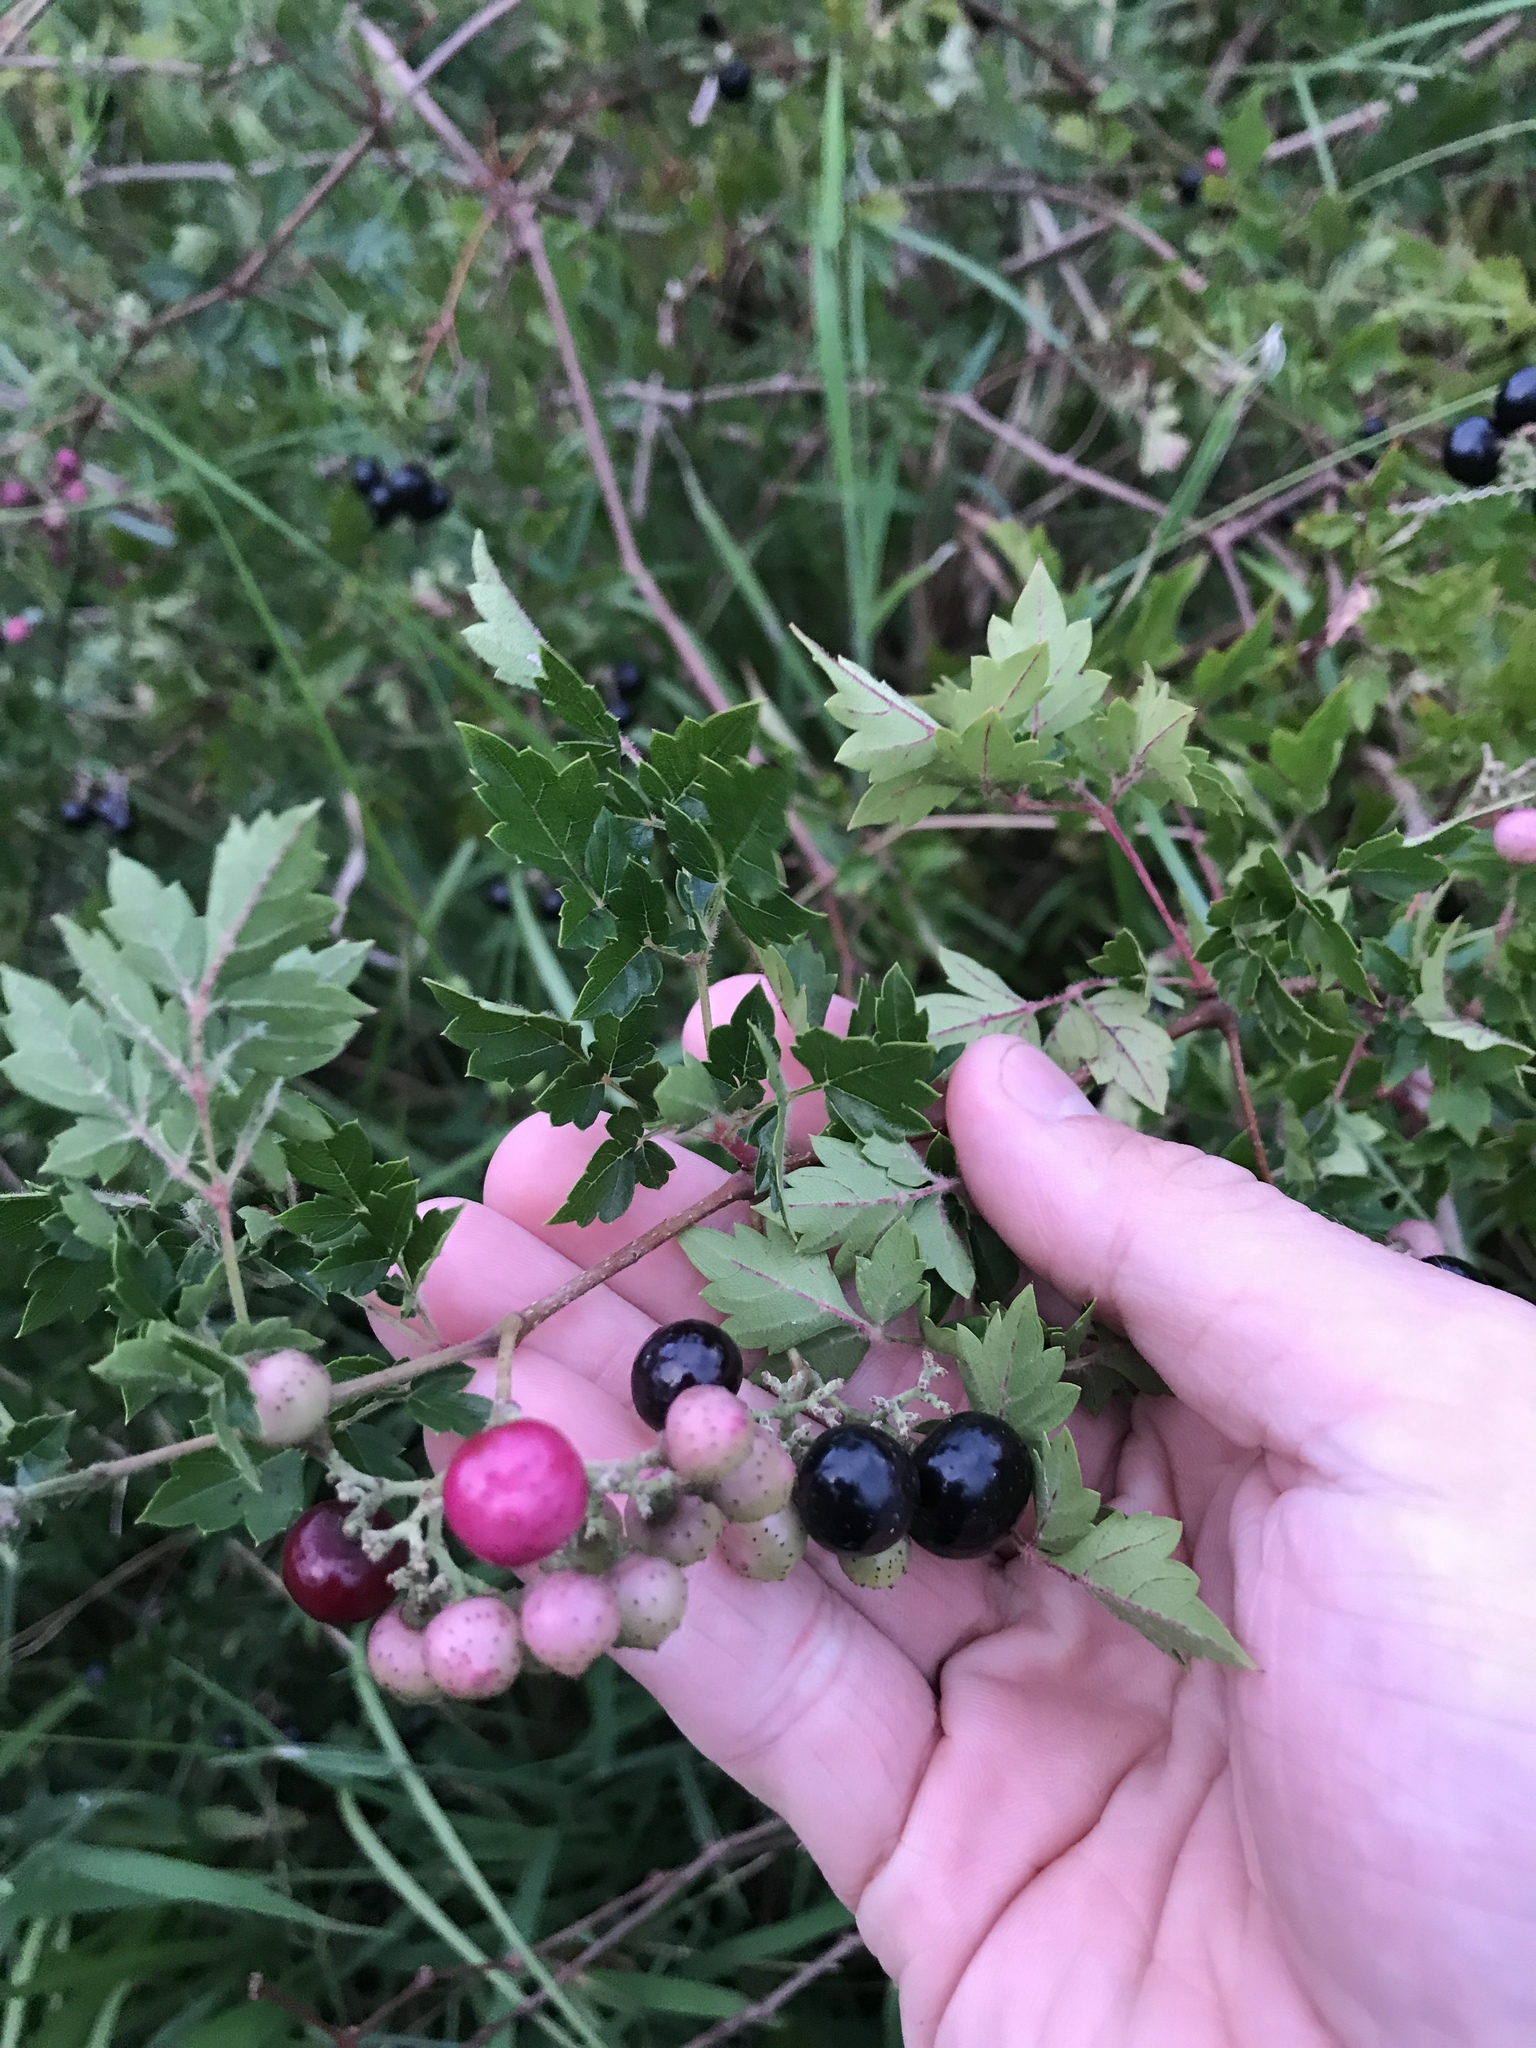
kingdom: Plantae
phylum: Tracheophyta
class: Magnoliopsida
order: Vitales
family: Vitaceae
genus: Nekemias
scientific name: Nekemias arborea
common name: Peppervine
